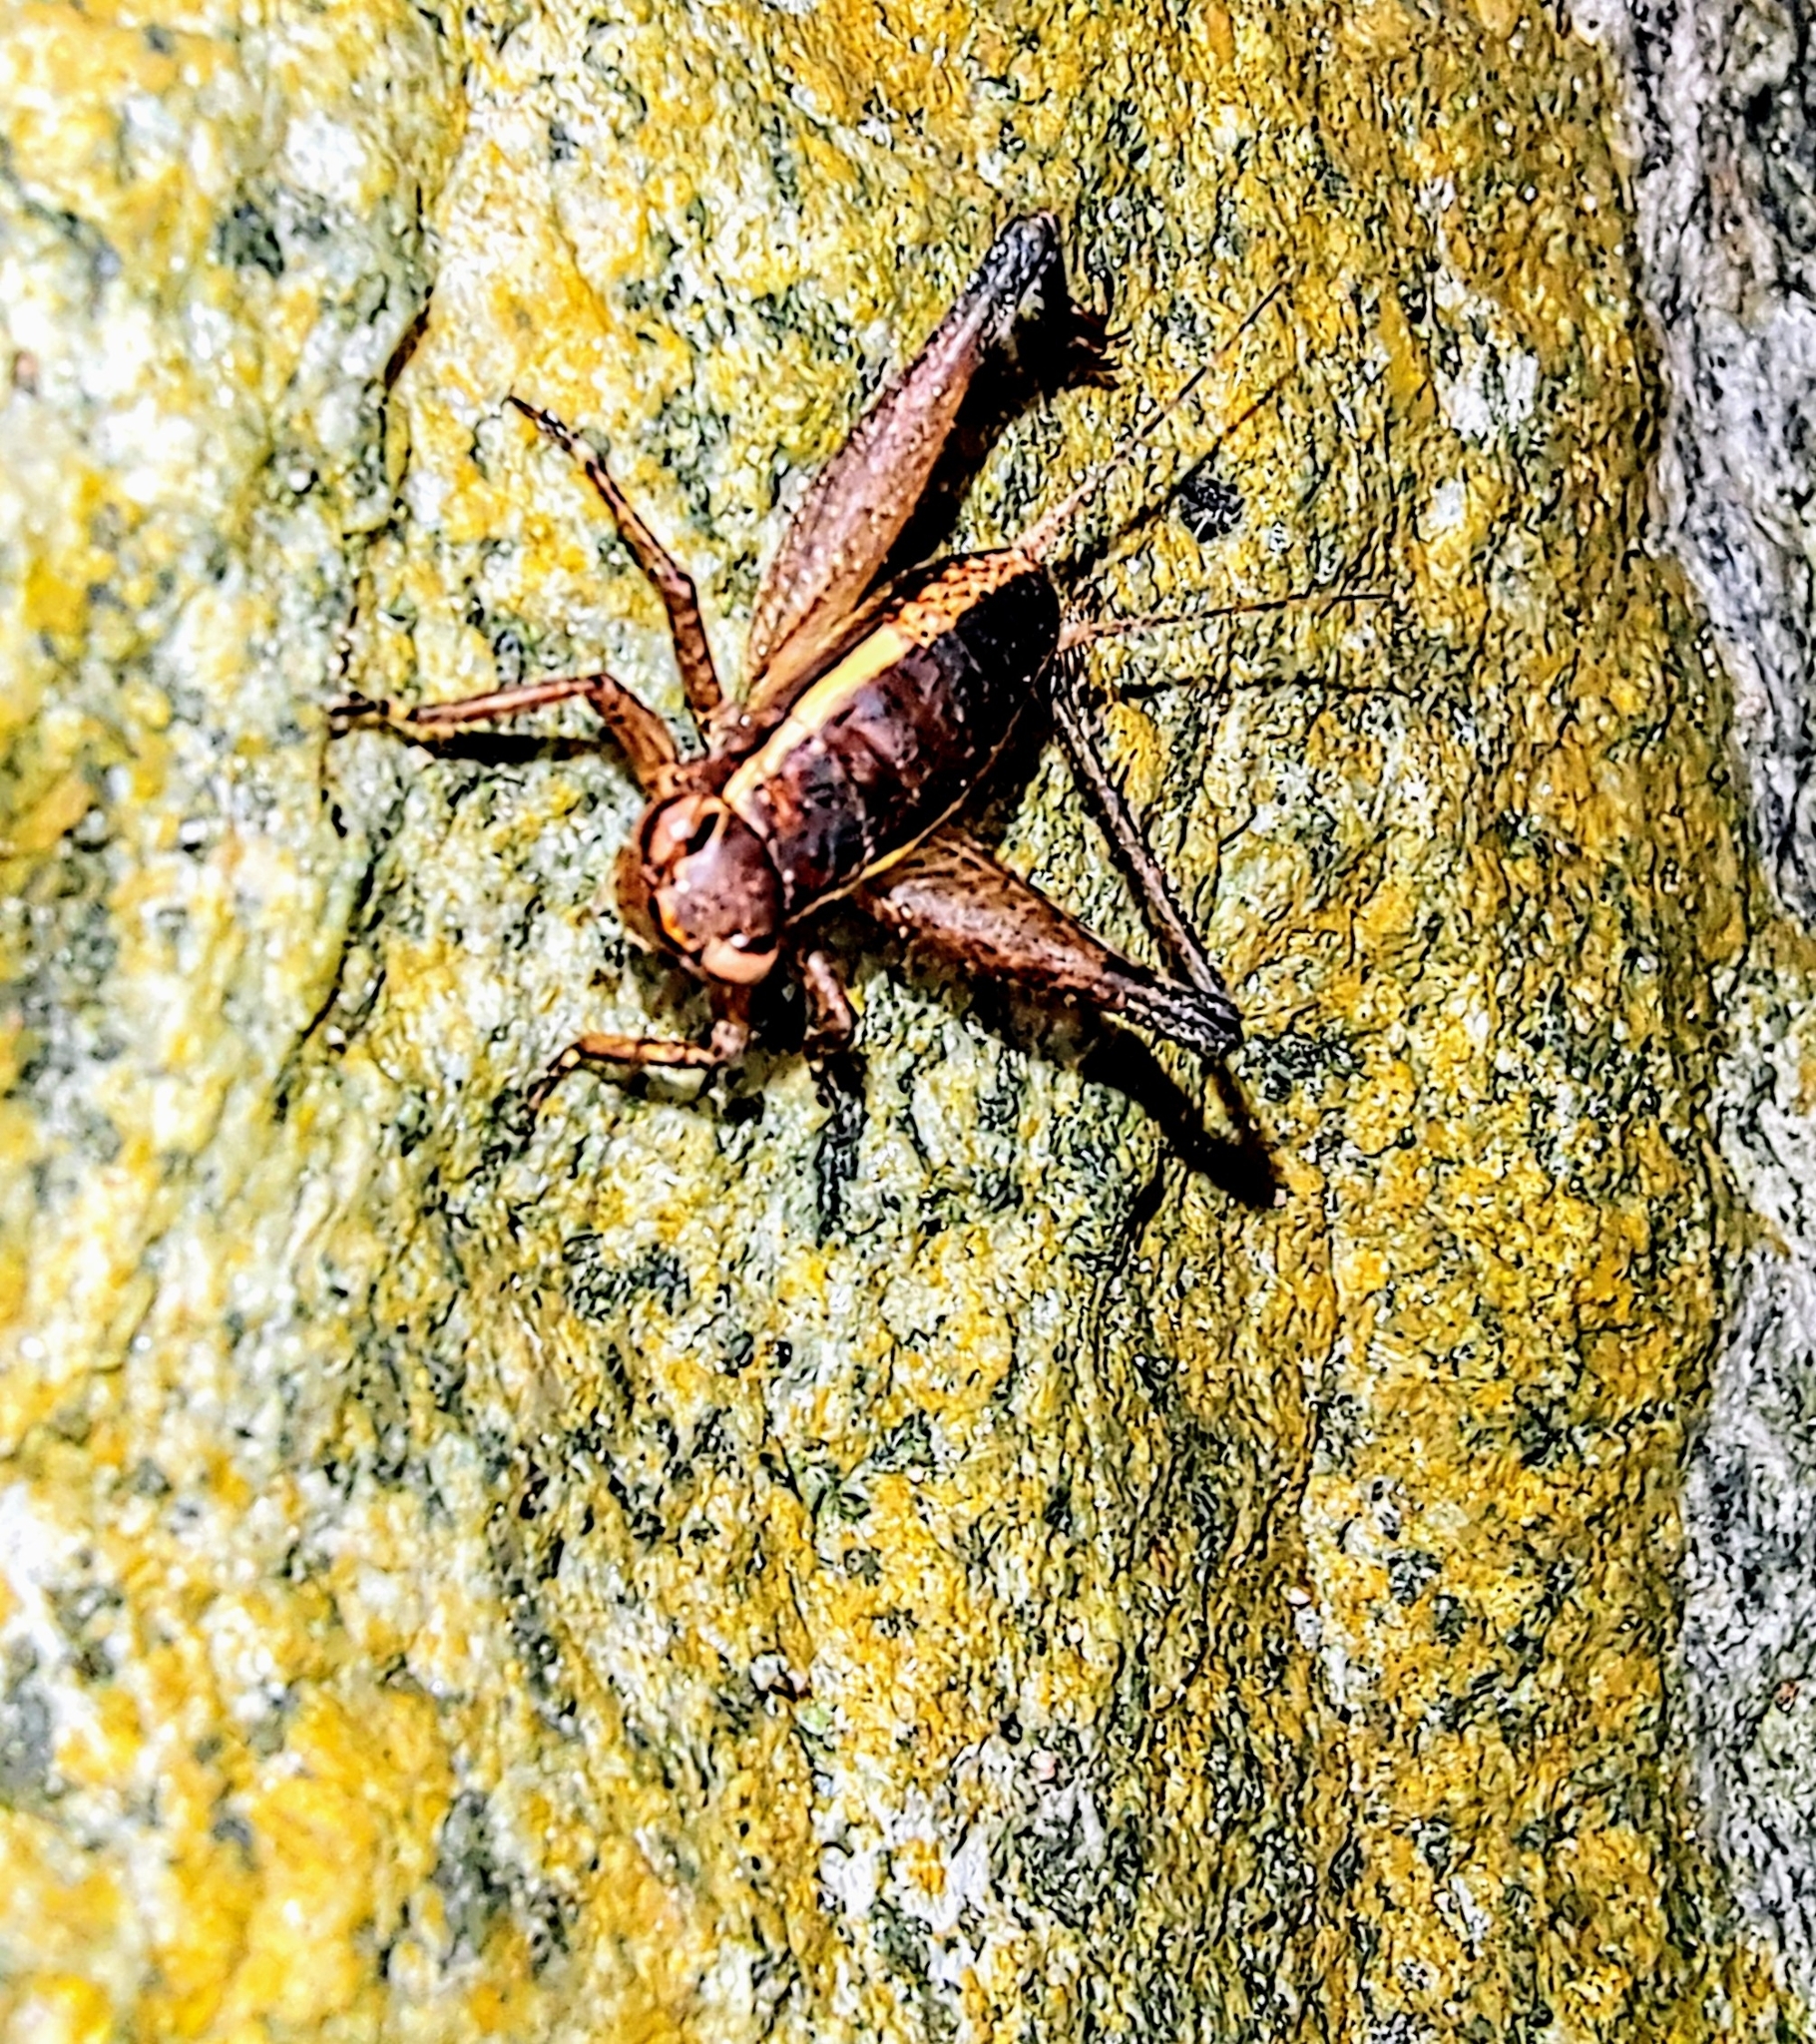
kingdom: Animalia
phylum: Arthropoda
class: Insecta
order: Orthoptera
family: Gryllidae
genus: Lebinthus
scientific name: Lebinthus luae
